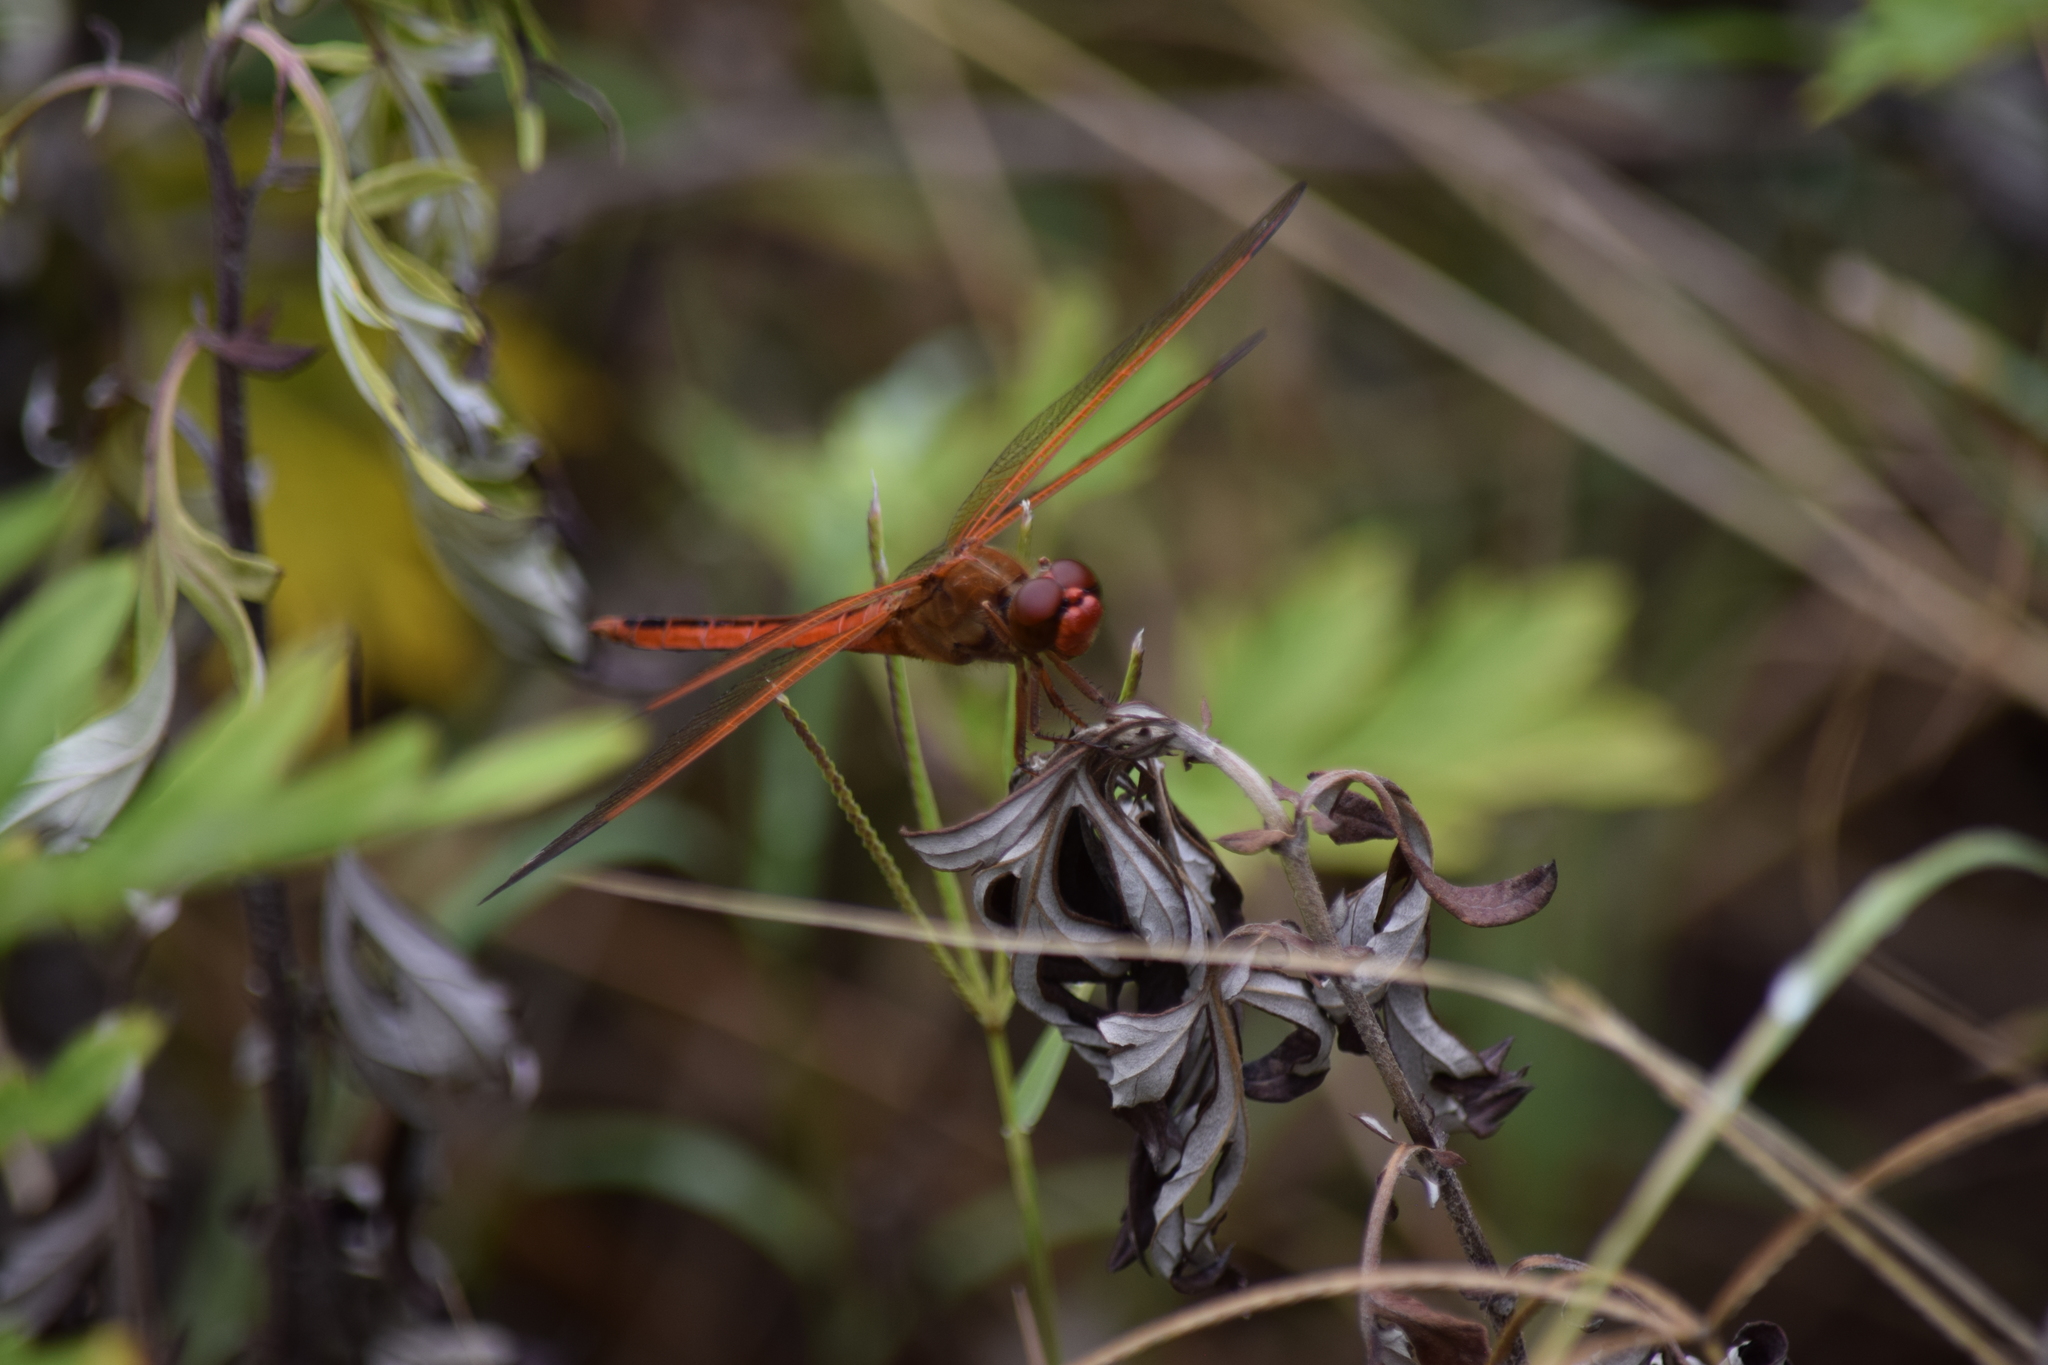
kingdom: Animalia
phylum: Arthropoda
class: Insecta
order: Odonata
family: Libellulidae
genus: Libellula
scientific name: Libellula needhami
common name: Needham's skimmer
